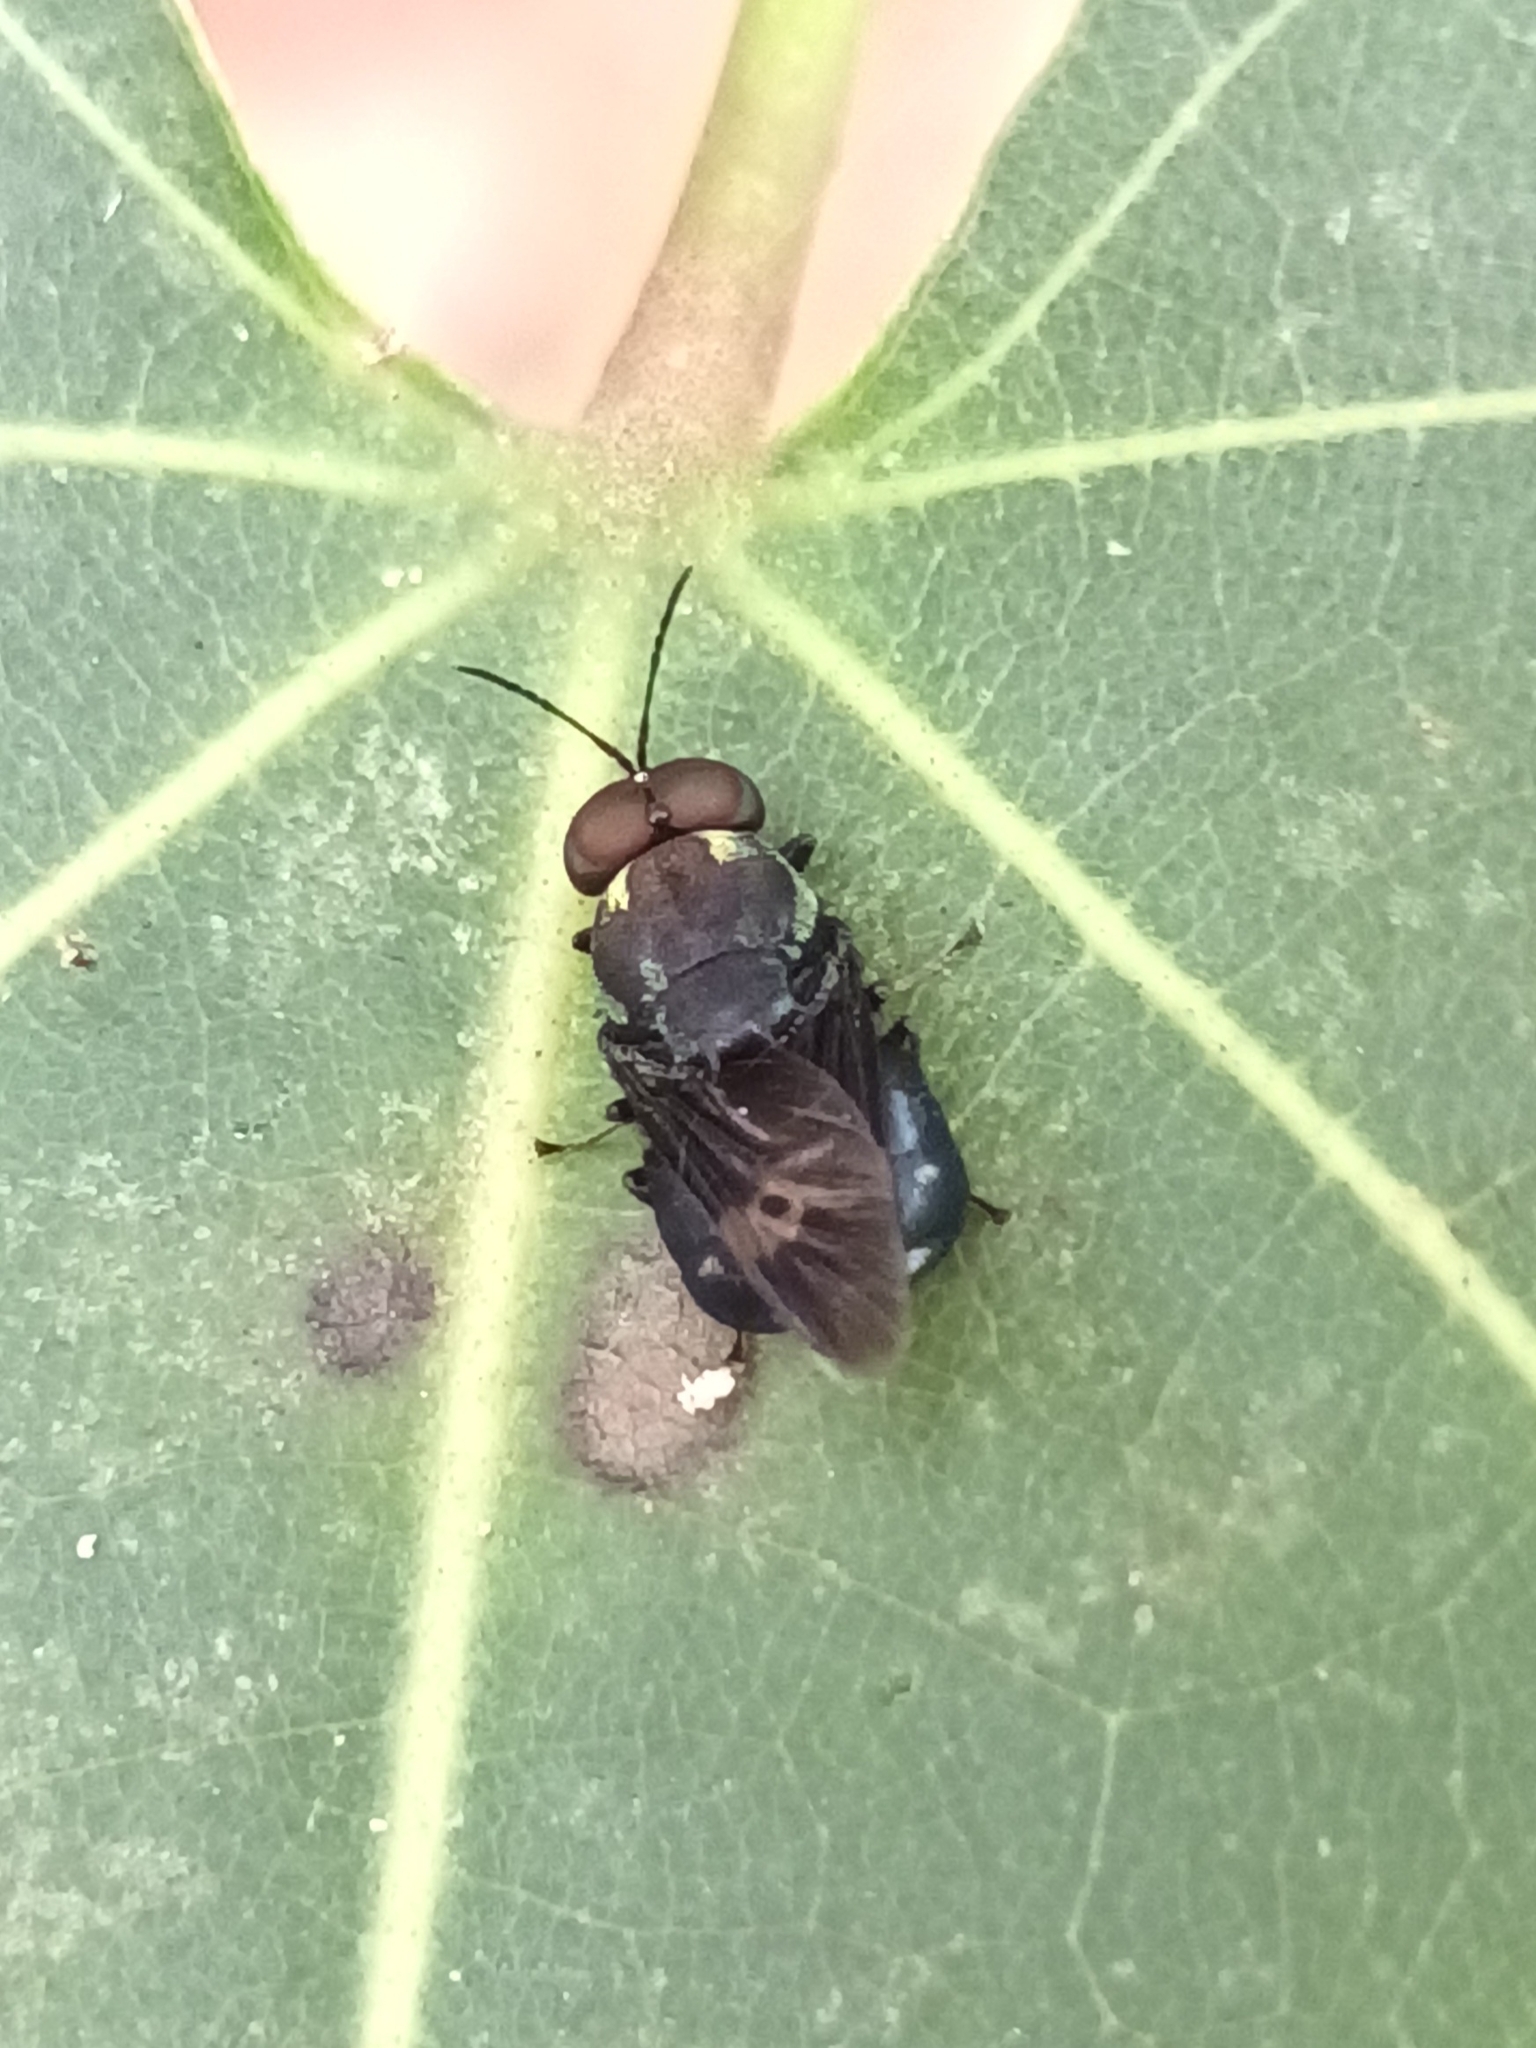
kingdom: Animalia
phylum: Arthropoda
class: Insecta
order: Diptera
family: Stratiomyidae
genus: Ptilocera
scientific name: Ptilocera continua
